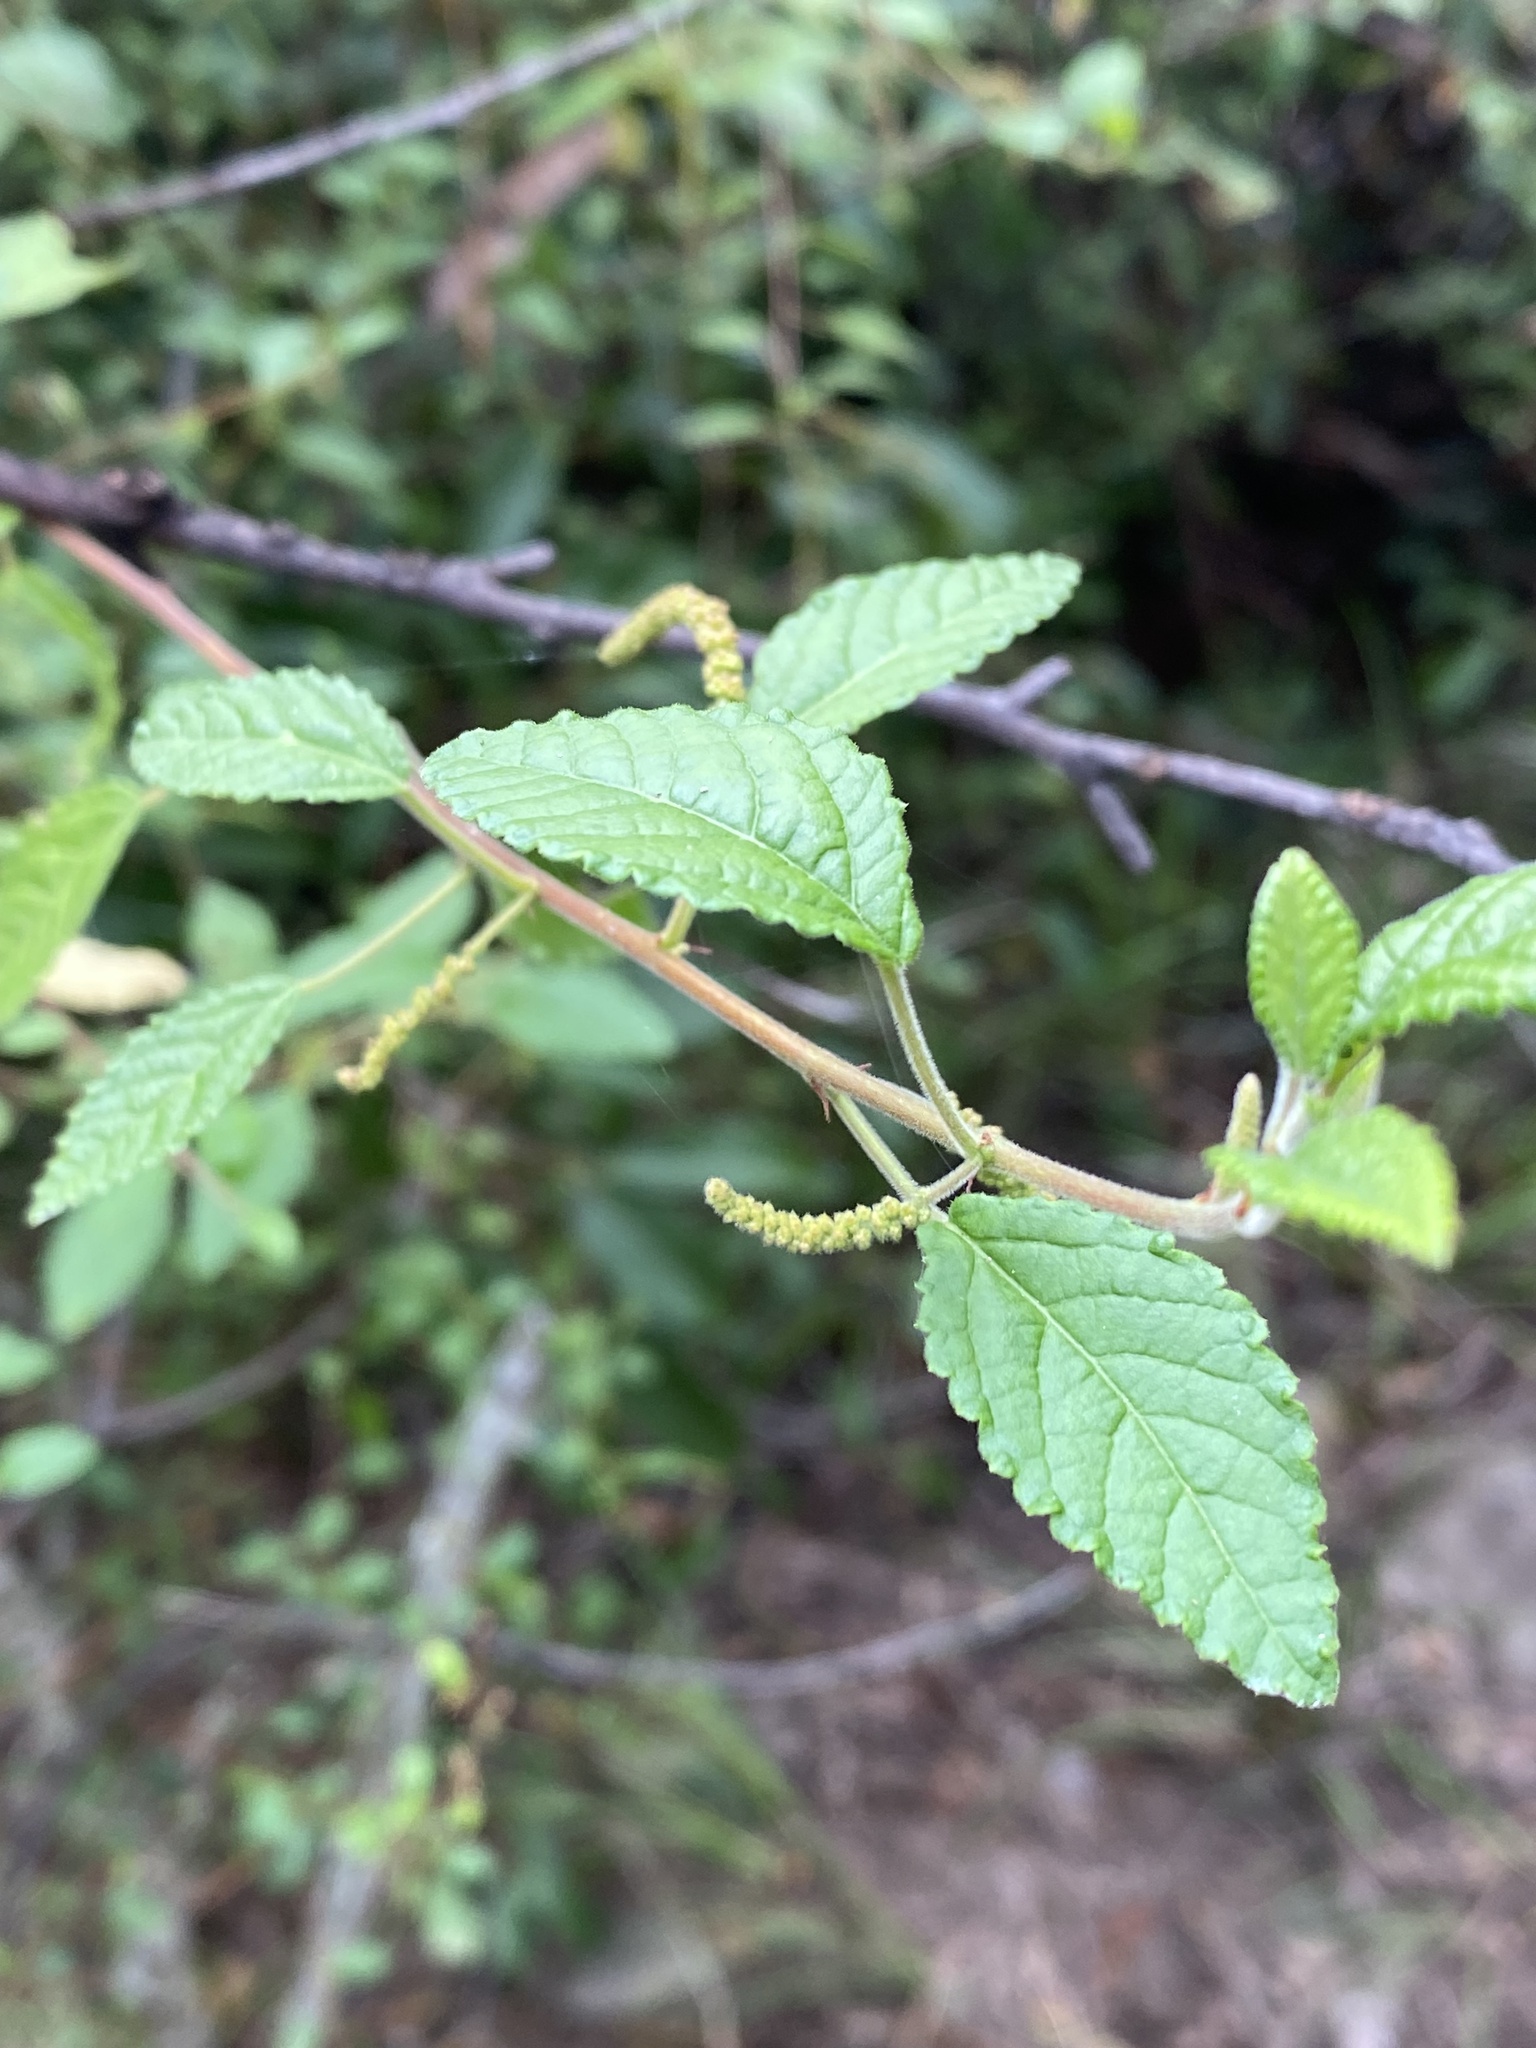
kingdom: Plantae
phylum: Tracheophyta
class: Magnoliopsida
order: Malpighiales
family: Euphorbiaceae
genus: Acalypha
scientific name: Acalypha nemorum
